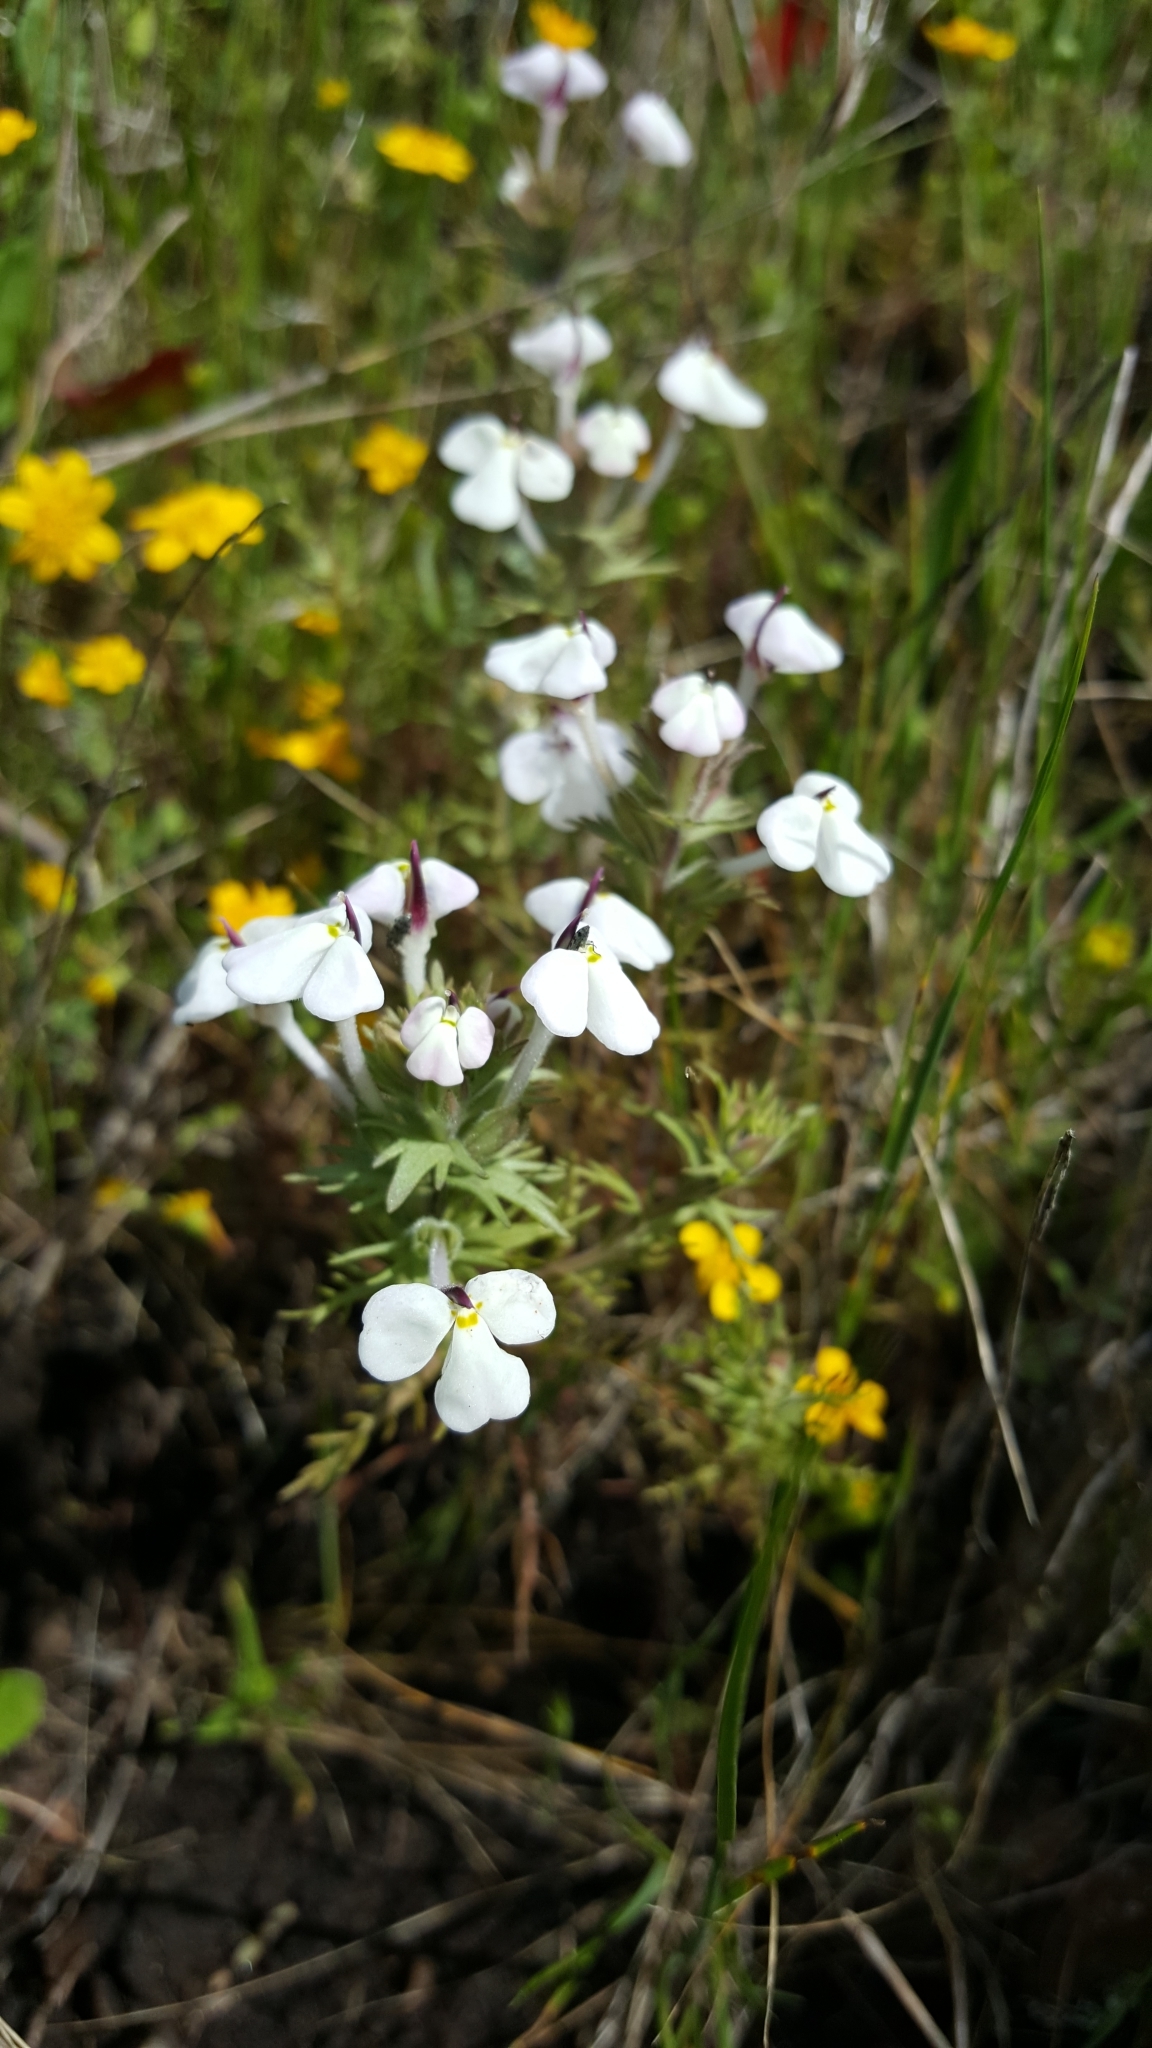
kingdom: Plantae
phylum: Tracheophyta
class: Magnoliopsida
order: Lamiales
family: Orobanchaceae
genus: Triphysaria
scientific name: Triphysaria eriantha
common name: Johnny-tuck
